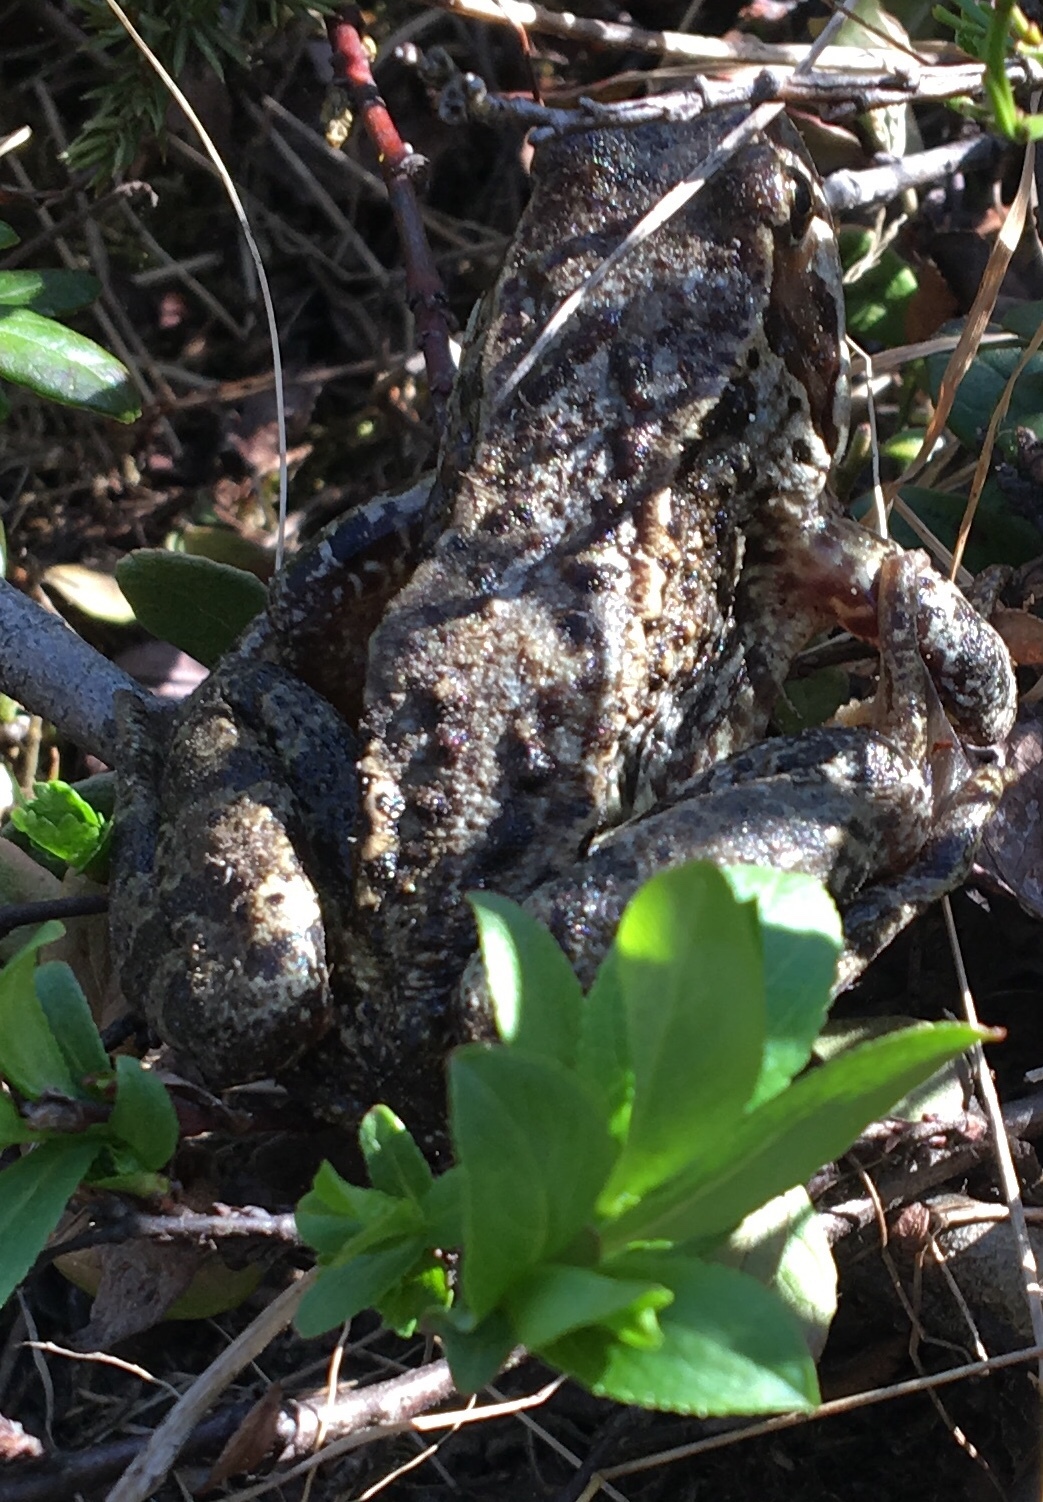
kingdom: Animalia
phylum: Chordata
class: Amphibia
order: Anura
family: Ranidae
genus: Rana
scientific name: Rana temporaria
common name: Common frog
